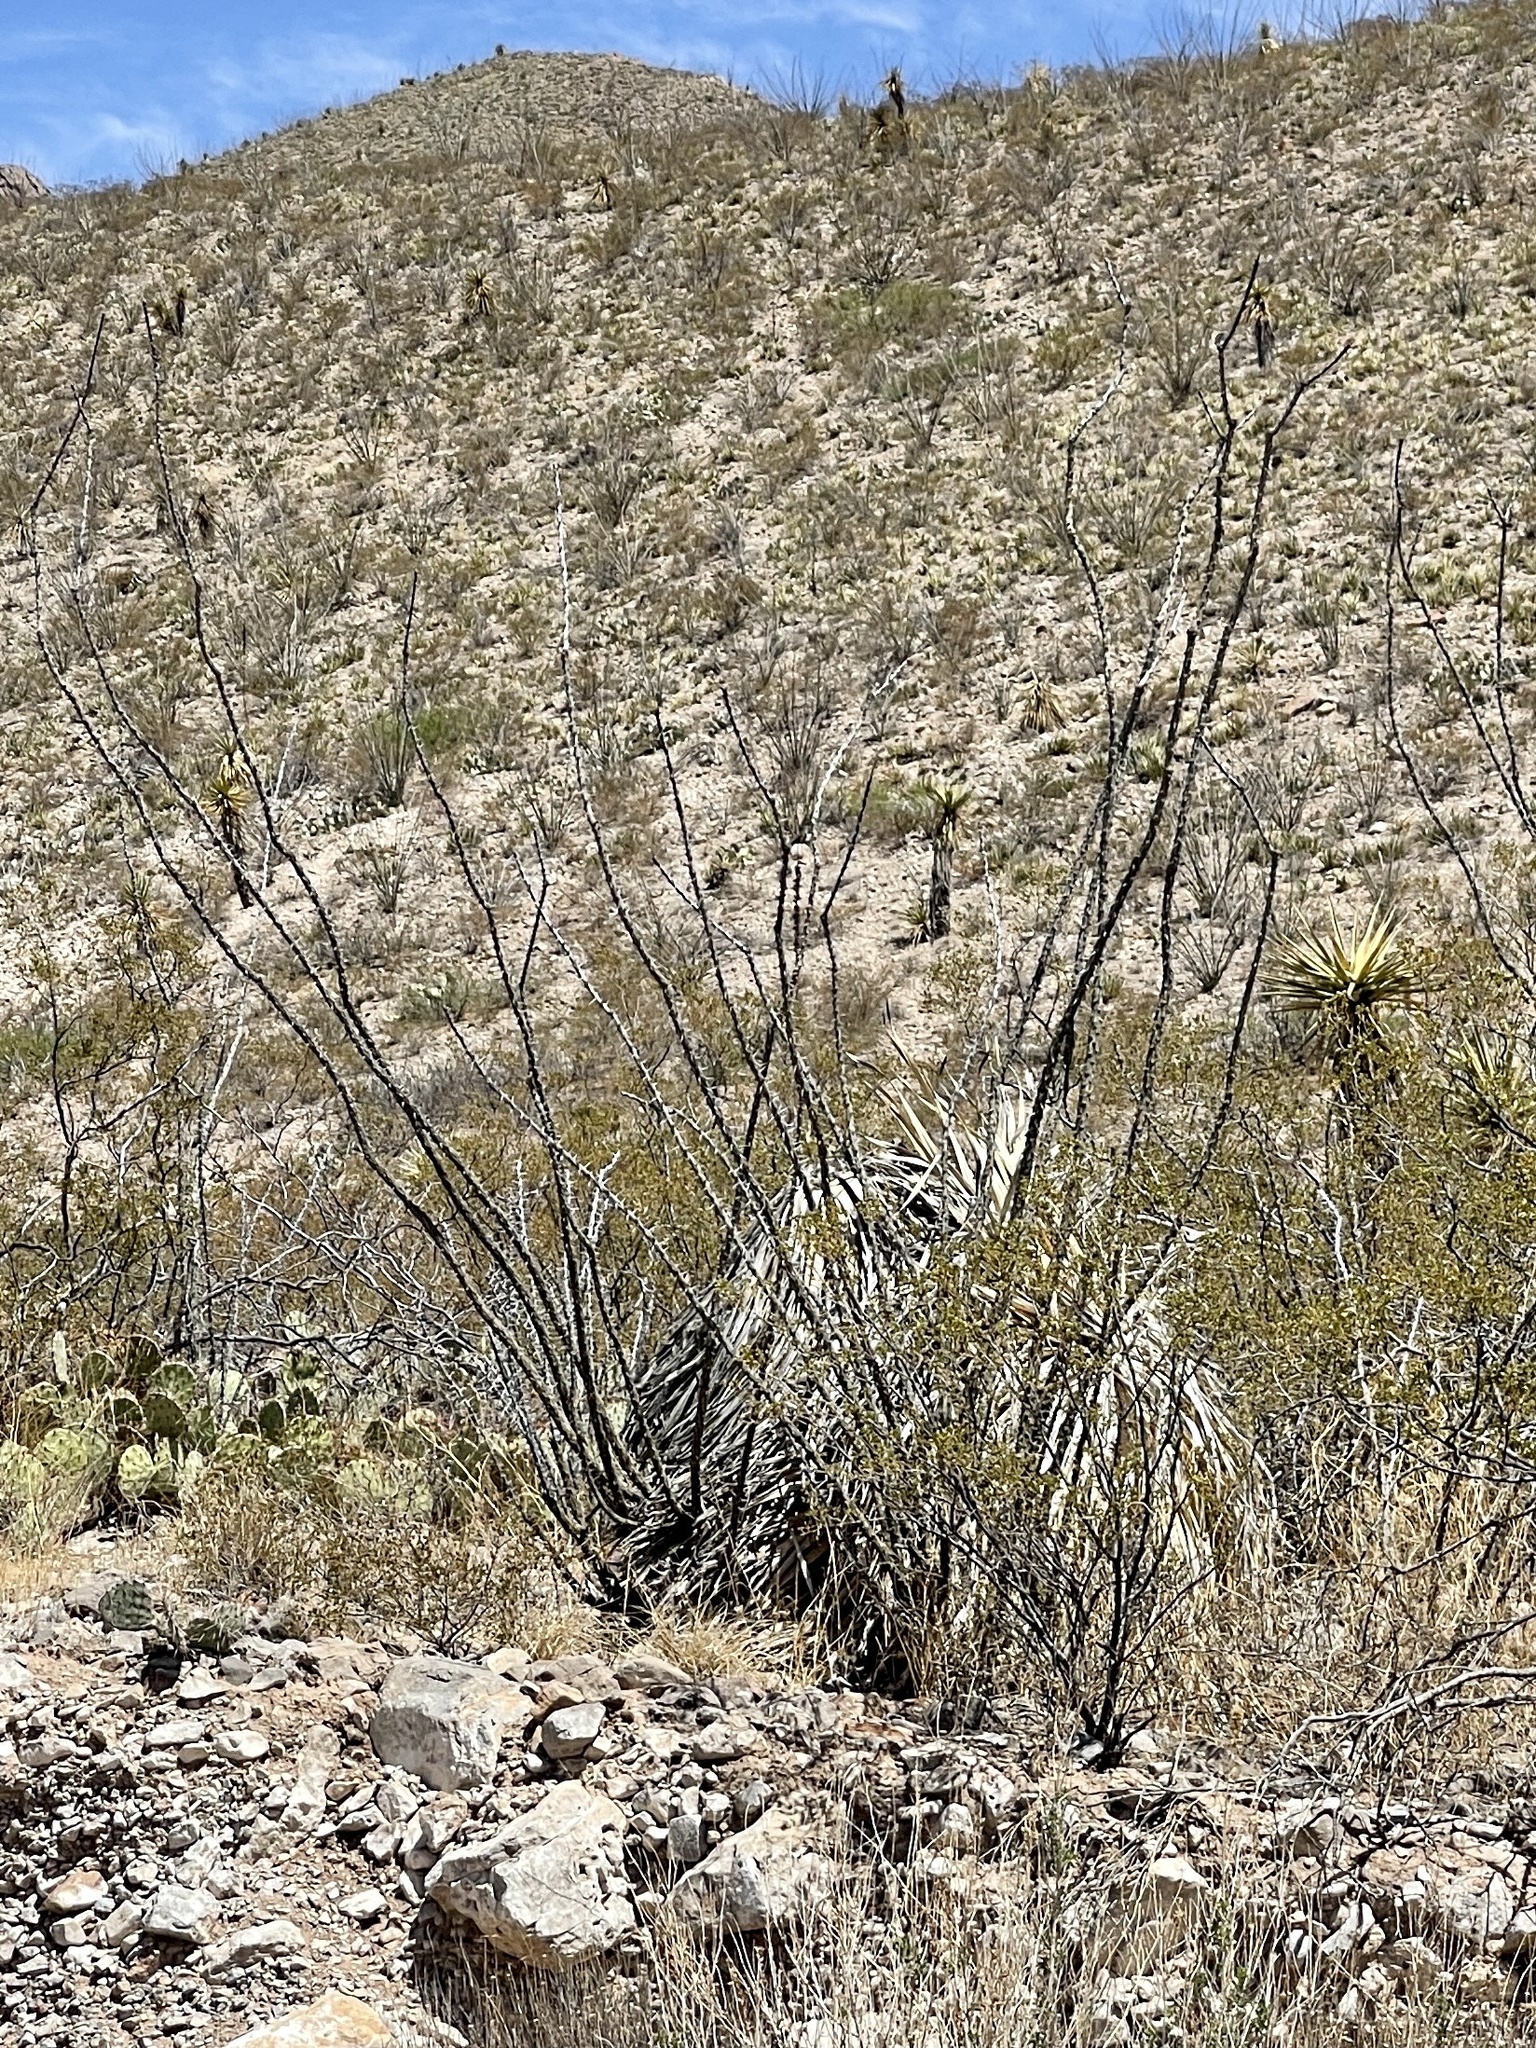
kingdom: Plantae
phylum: Tracheophyta
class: Magnoliopsida
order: Ericales
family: Fouquieriaceae
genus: Fouquieria
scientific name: Fouquieria splendens
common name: Vine-cactus
